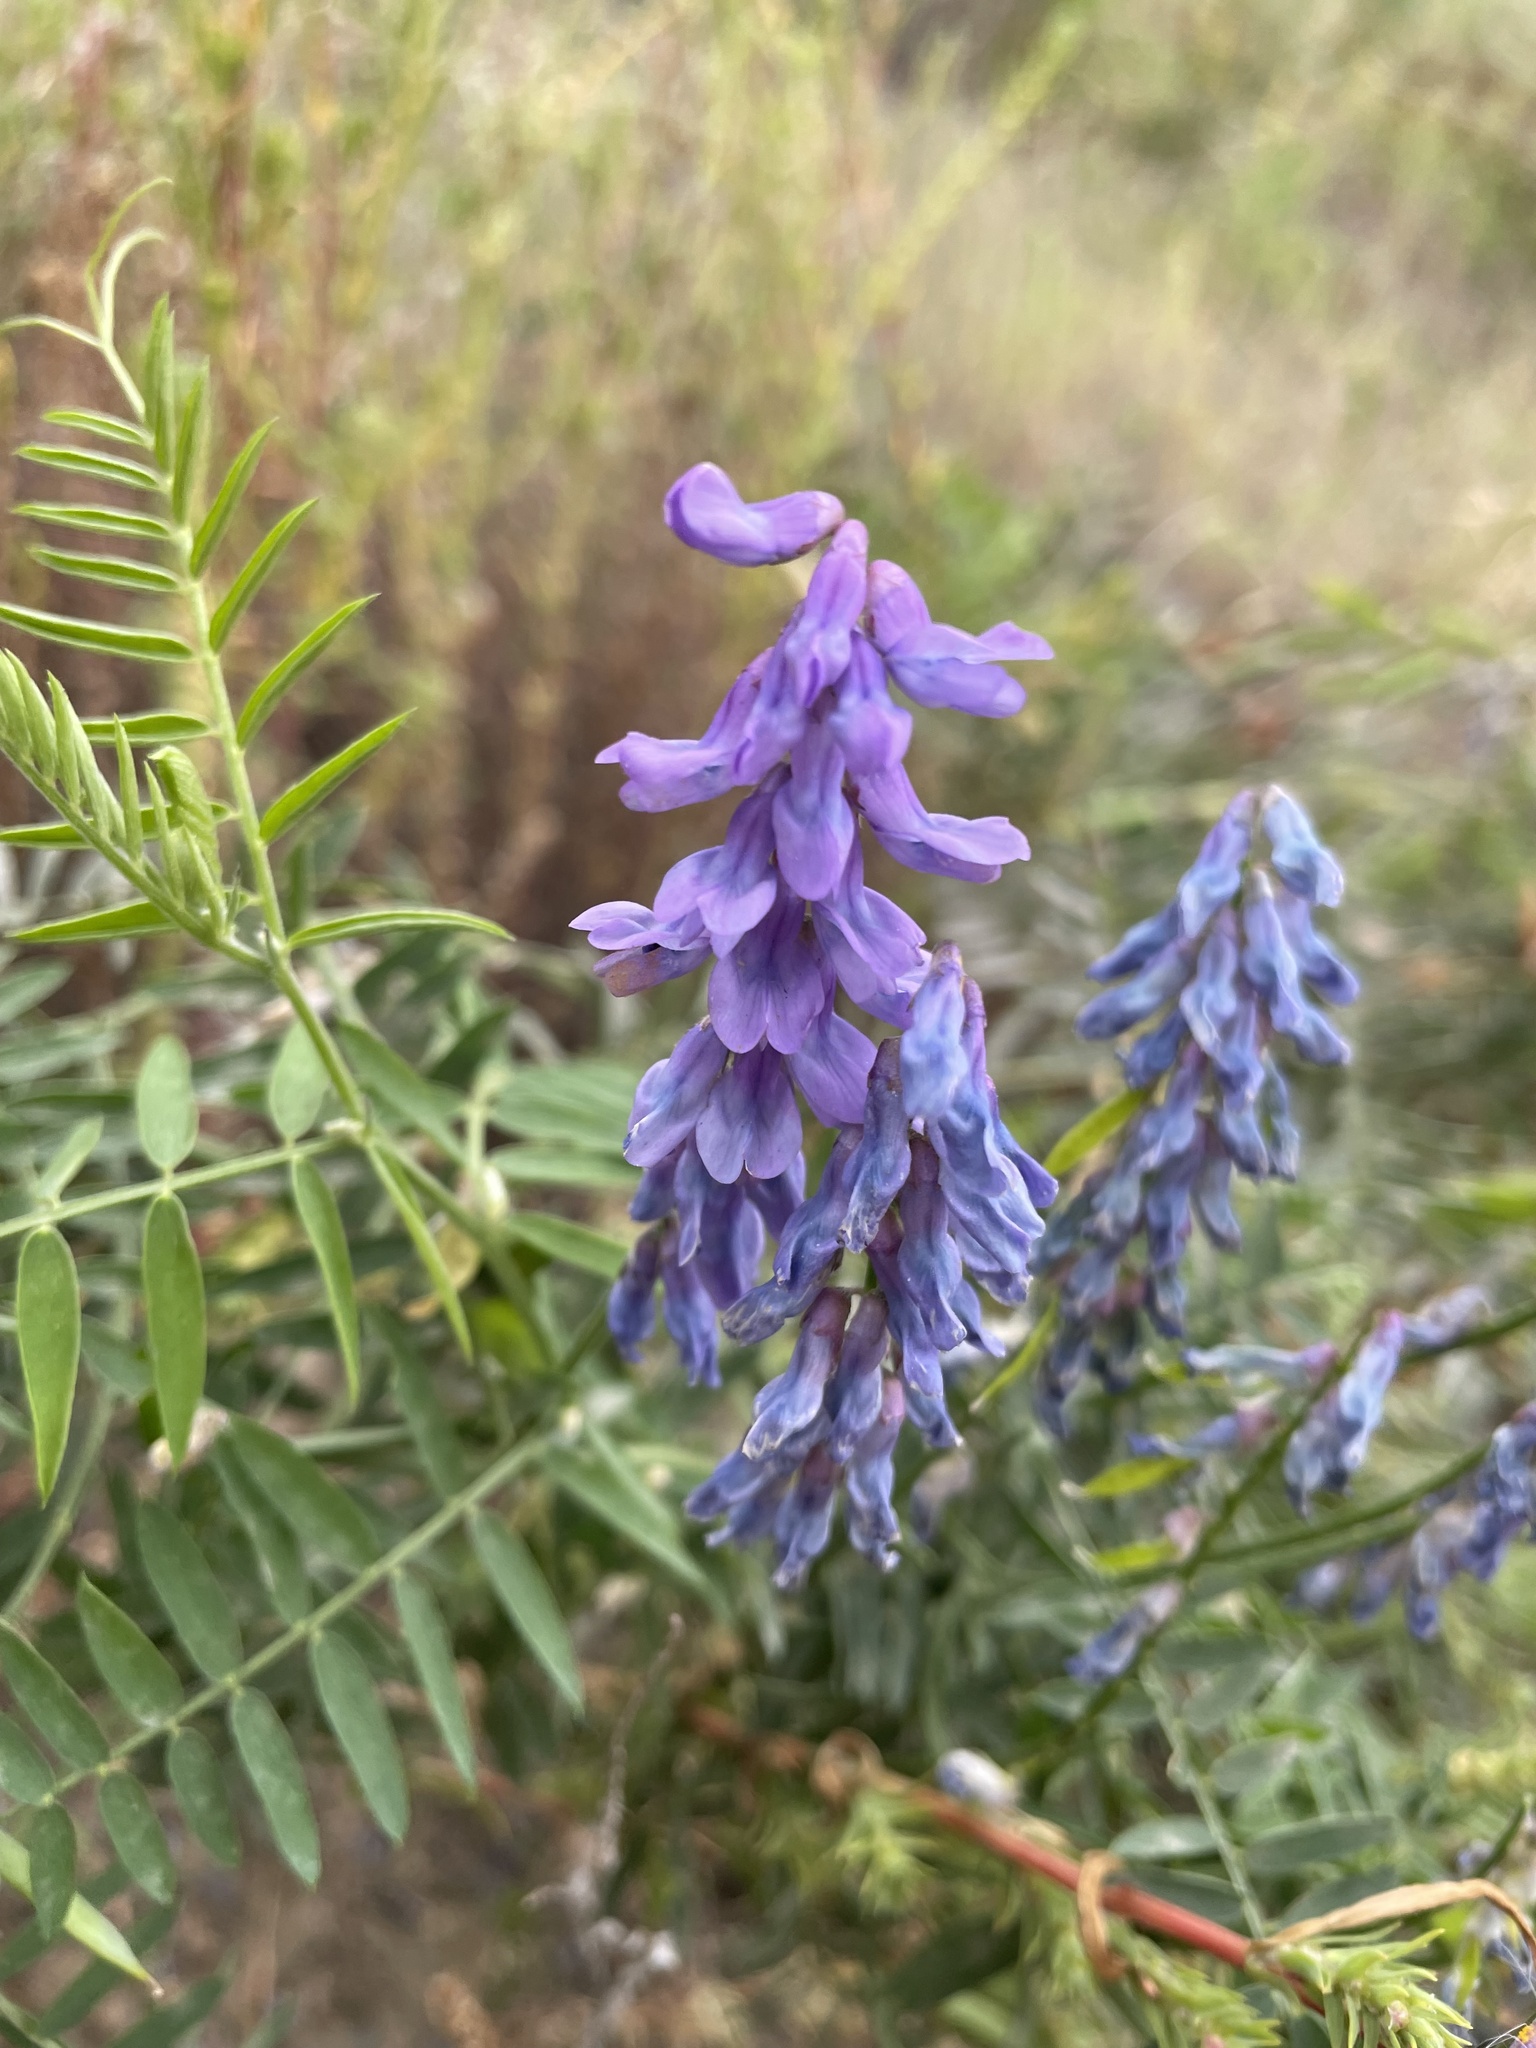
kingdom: Plantae
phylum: Tracheophyta
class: Magnoliopsida
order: Fabales
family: Fabaceae
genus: Vicia
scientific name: Vicia cracca
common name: Bird vetch
